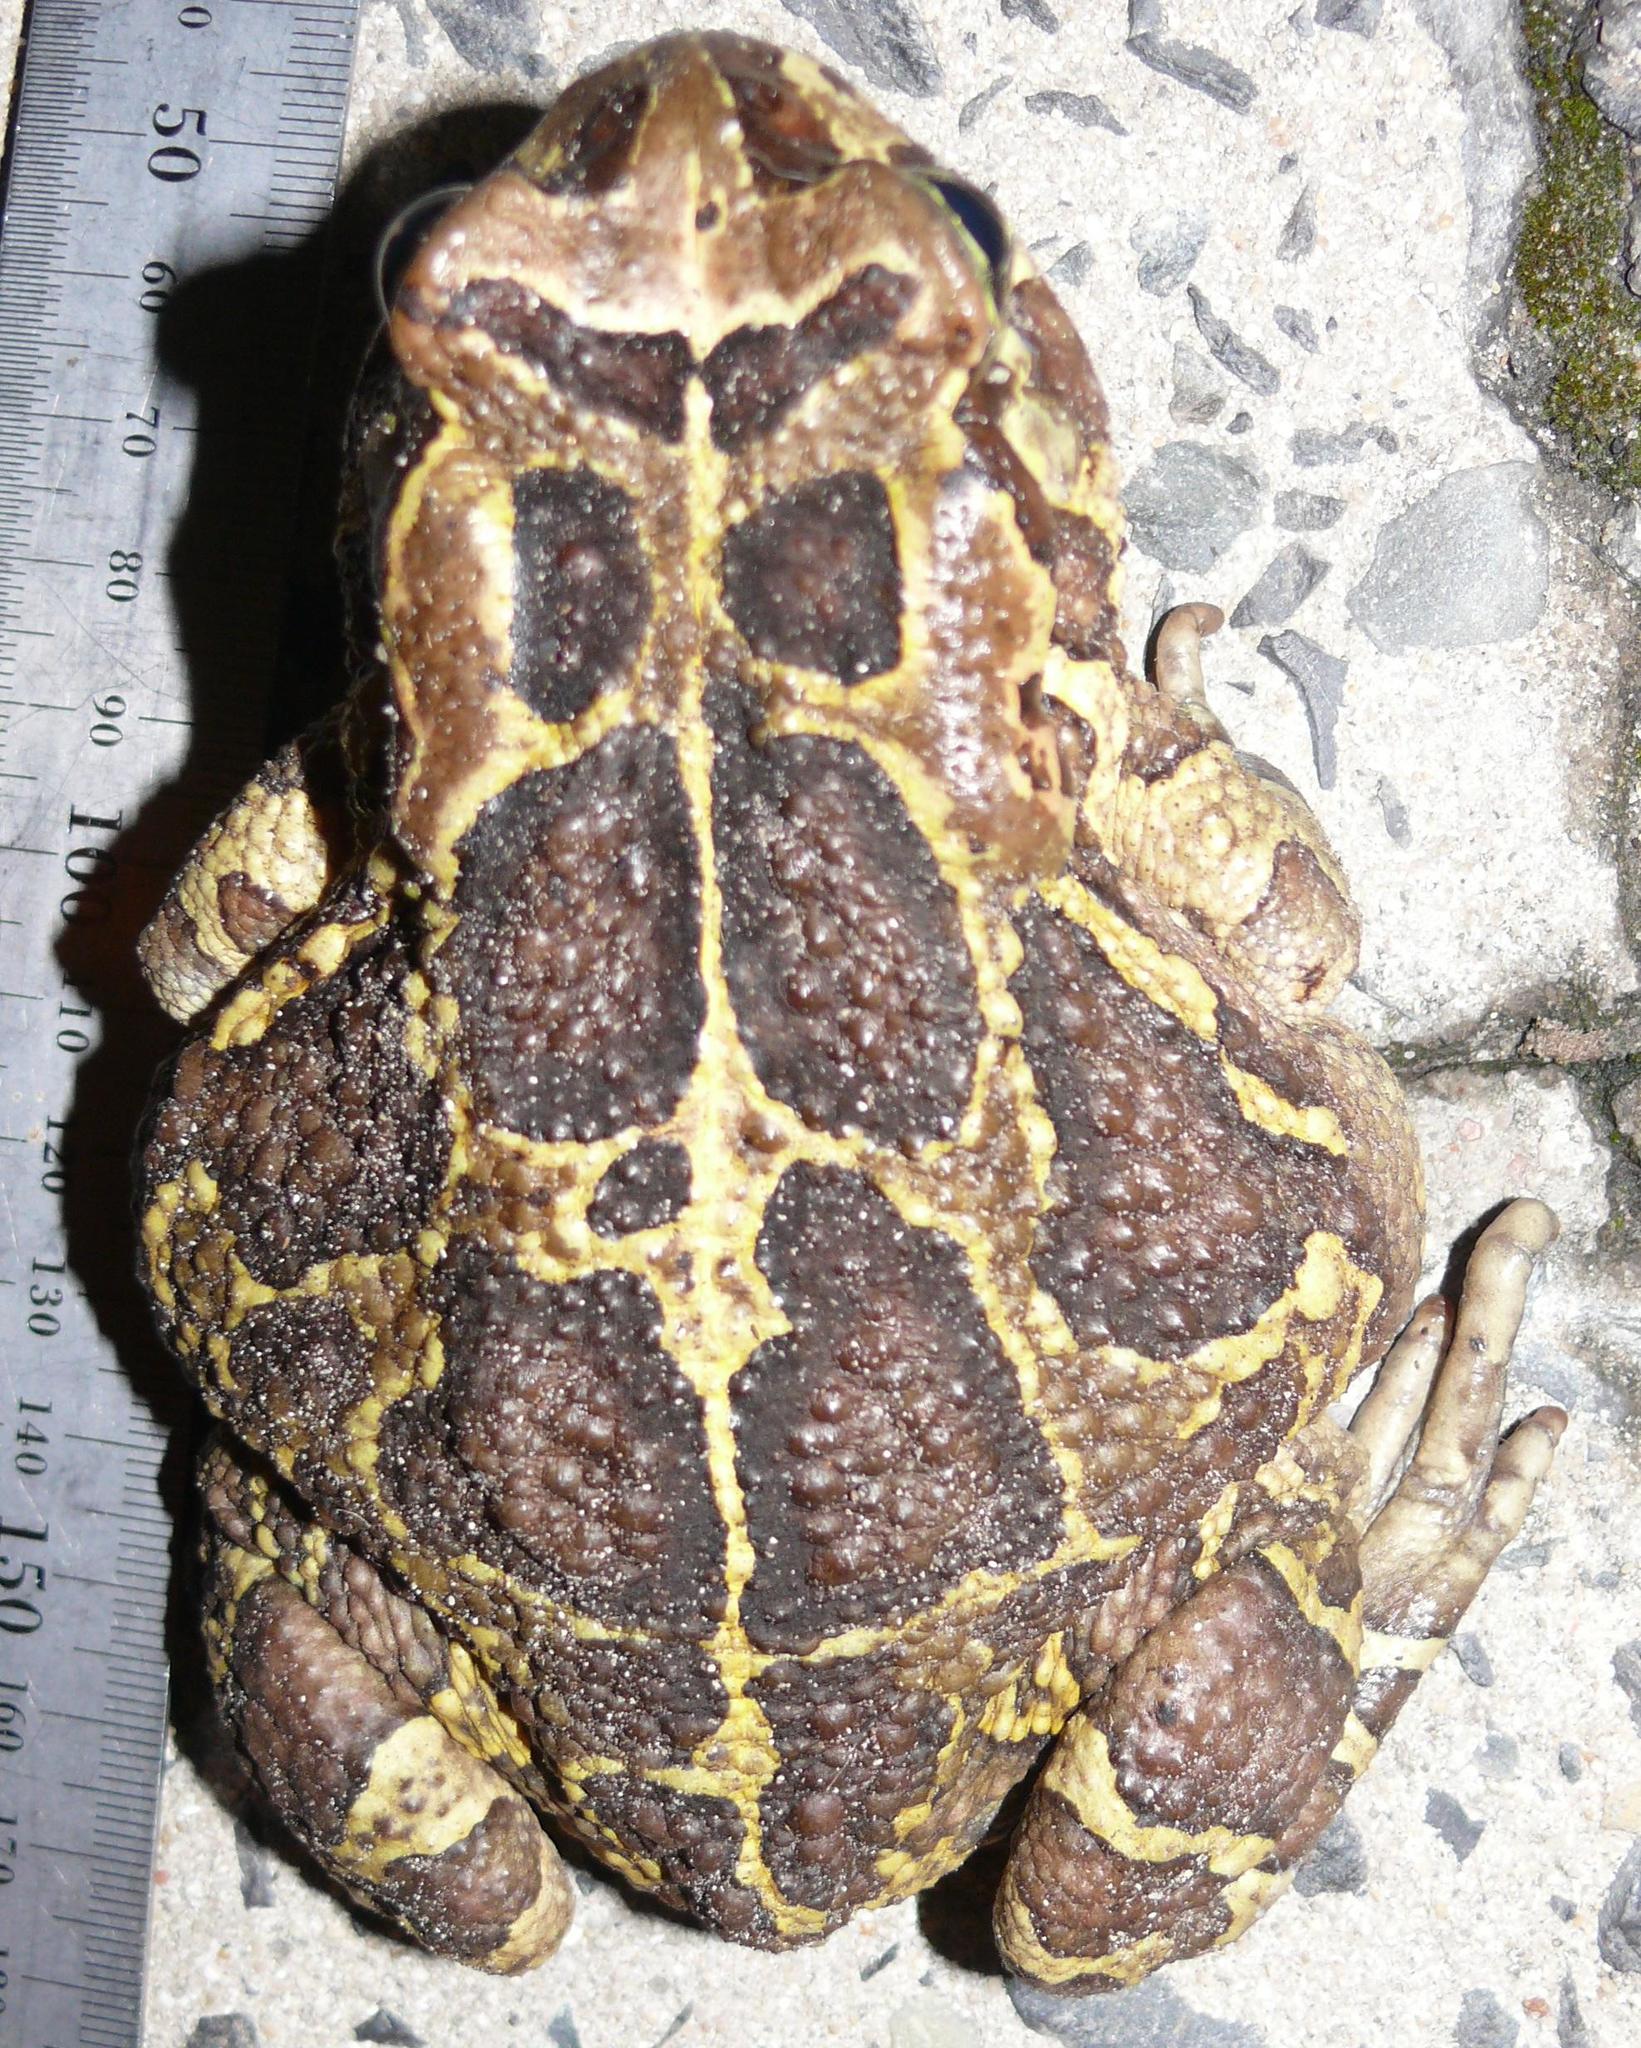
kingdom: Animalia
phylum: Chordata
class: Amphibia
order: Anura
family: Bufonidae
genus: Sclerophrys
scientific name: Sclerophrys pantherina
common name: Panther toad
